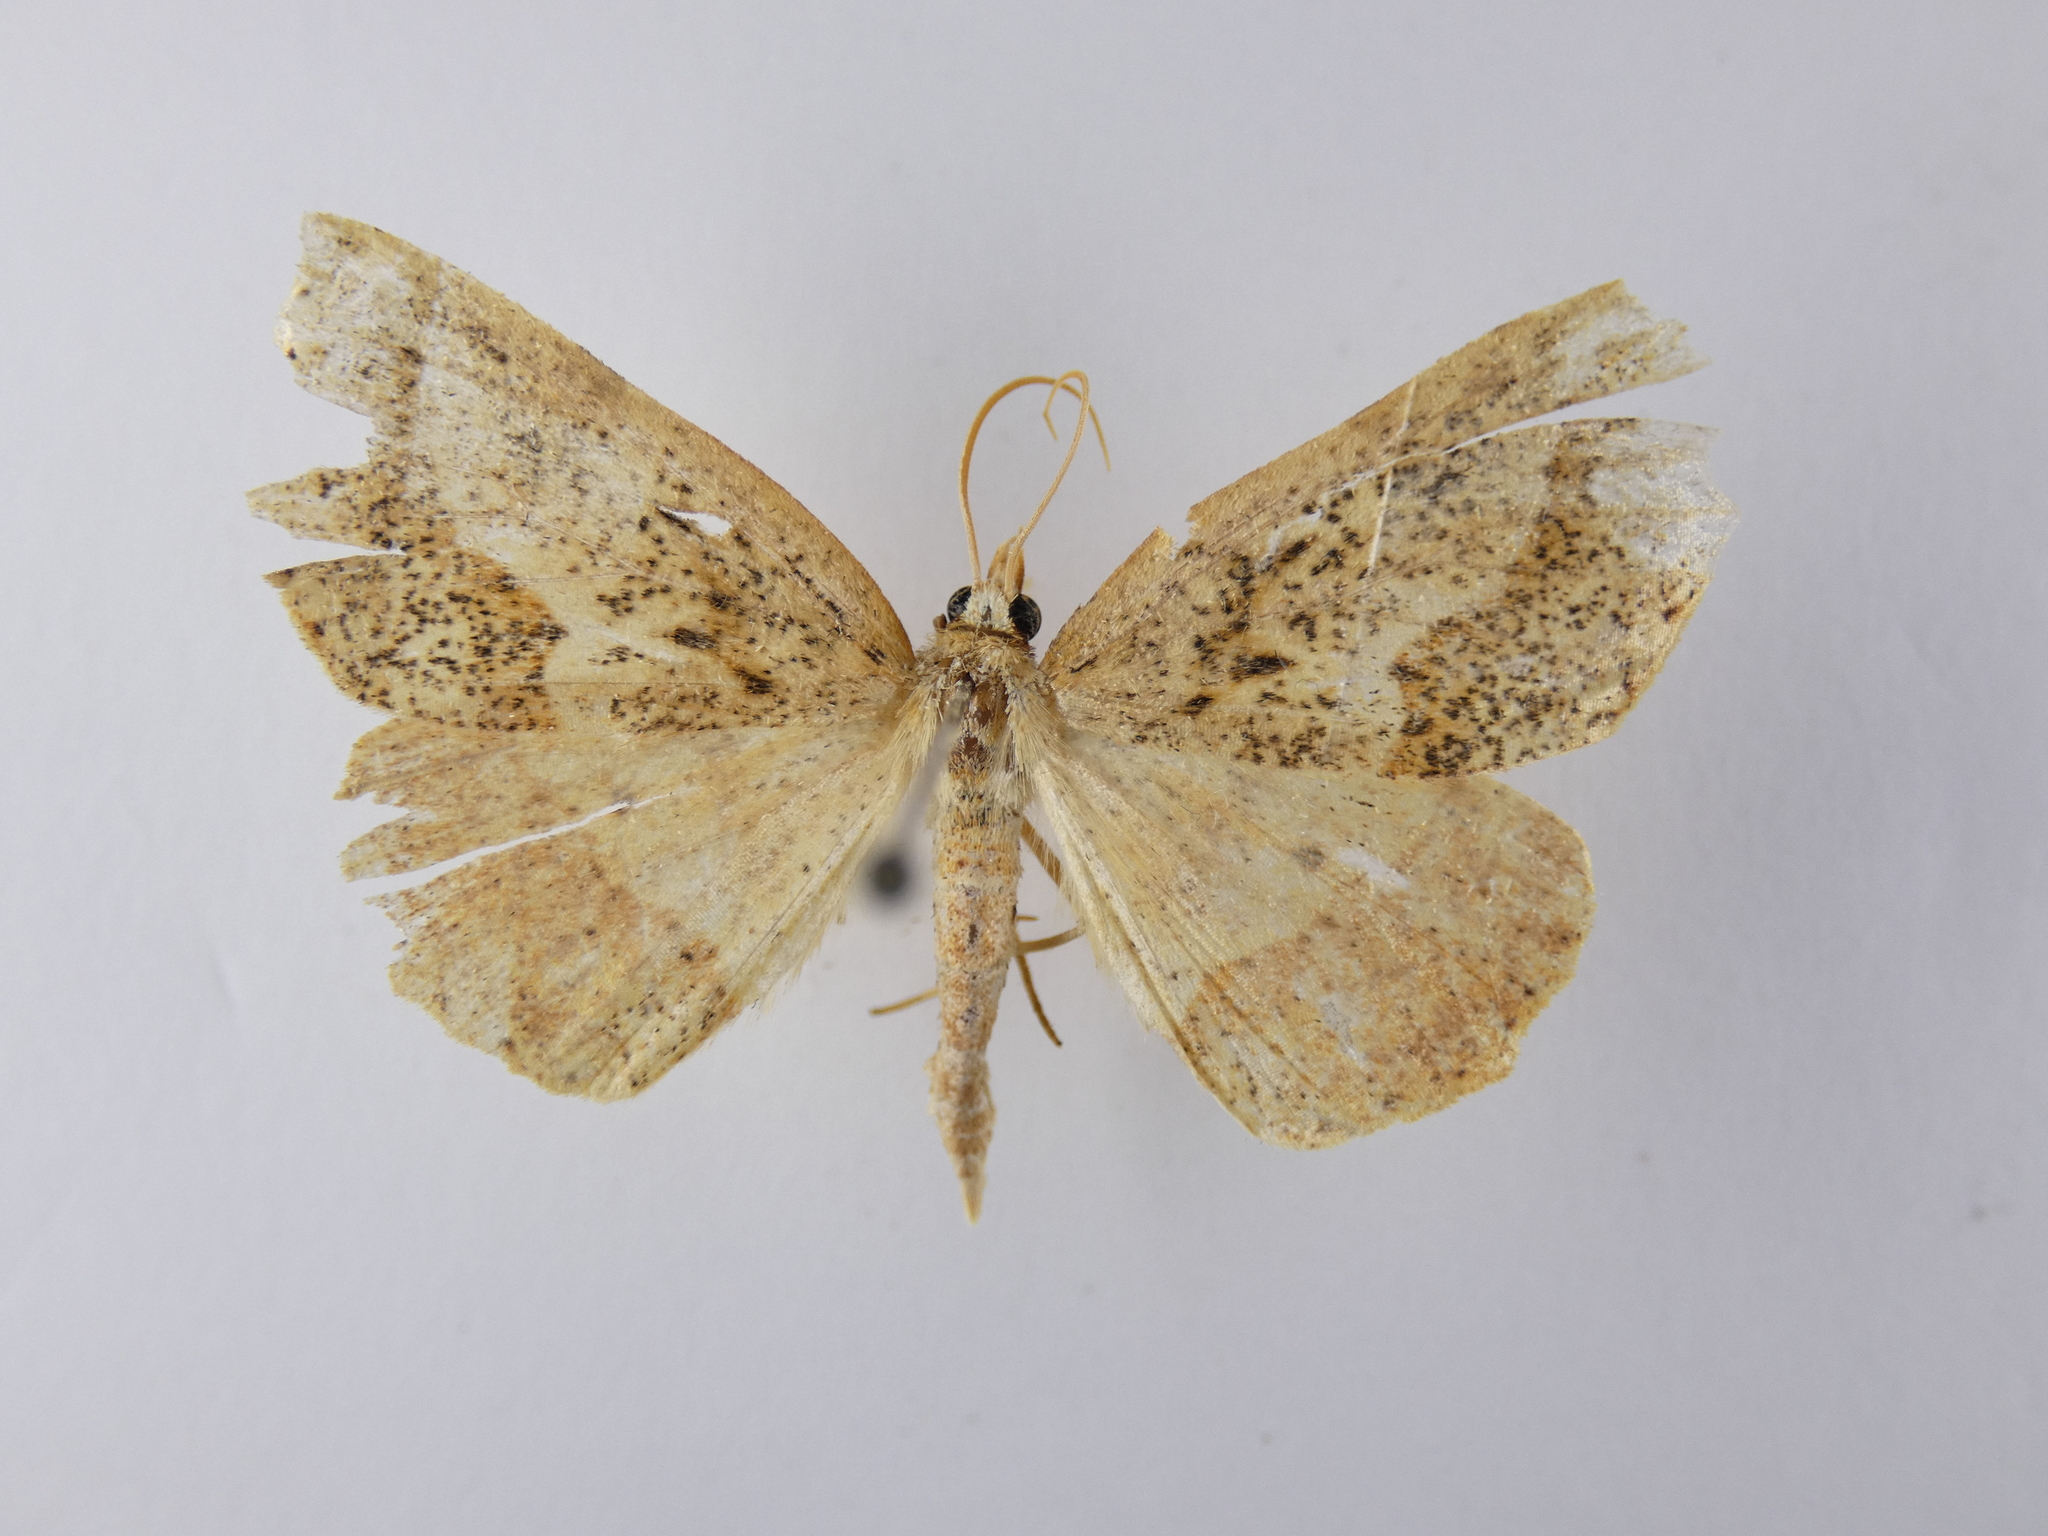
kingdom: Animalia
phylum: Arthropoda
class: Insecta
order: Lepidoptera
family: Geometridae
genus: Ischalis
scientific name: Ischalis variabilis
